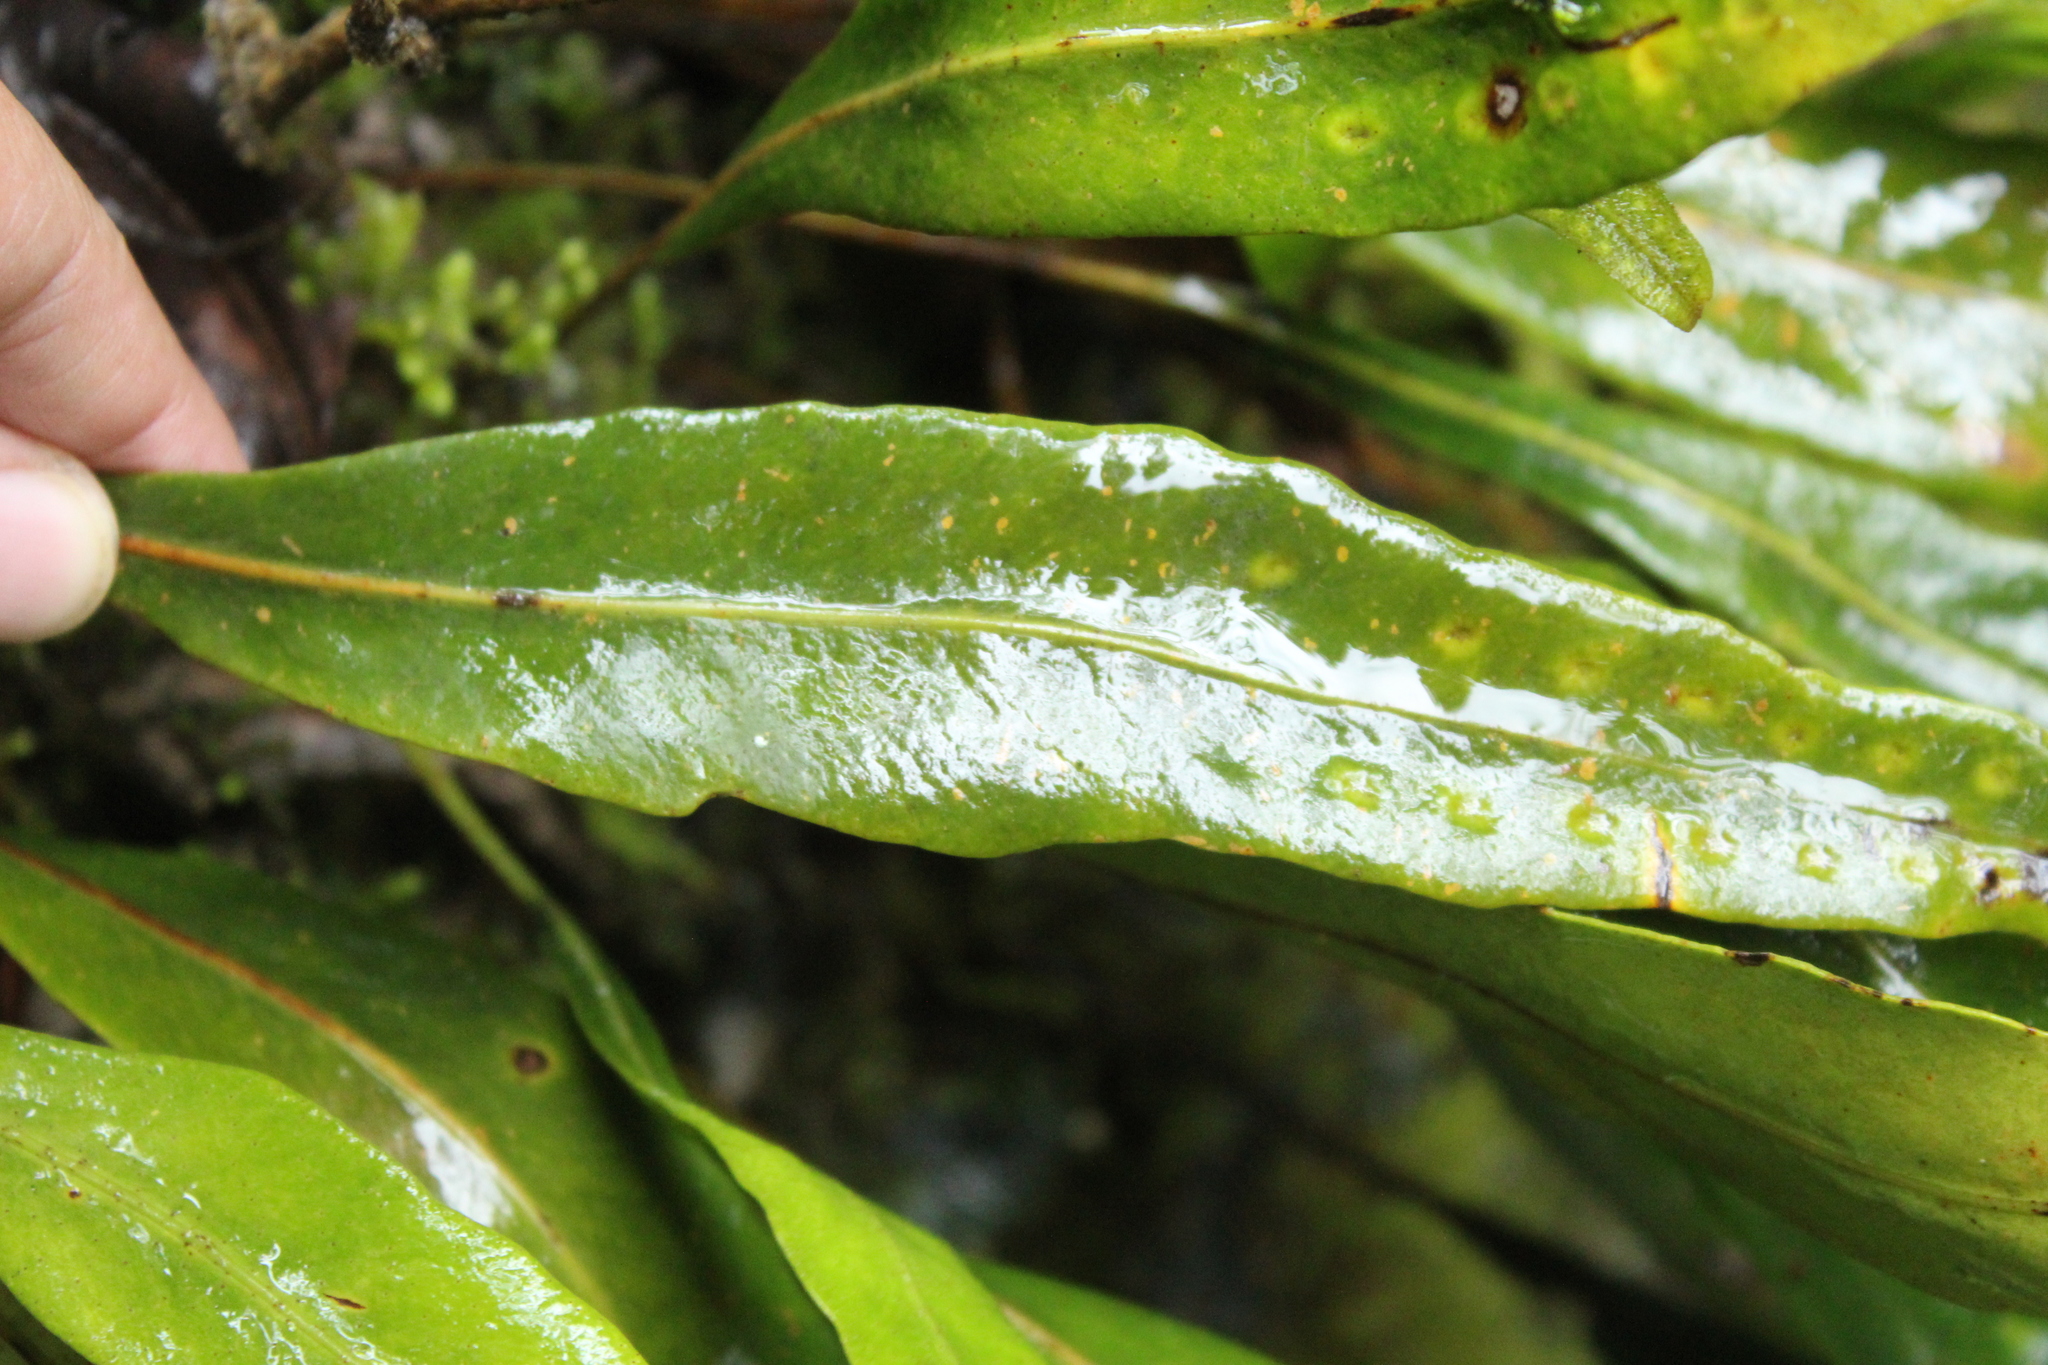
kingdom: Plantae
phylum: Tracheophyta
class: Polypodiopsida
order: Polypodiales
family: Polypodiaceae
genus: Pleopeltis
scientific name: Pleopeltis macrocarpa
